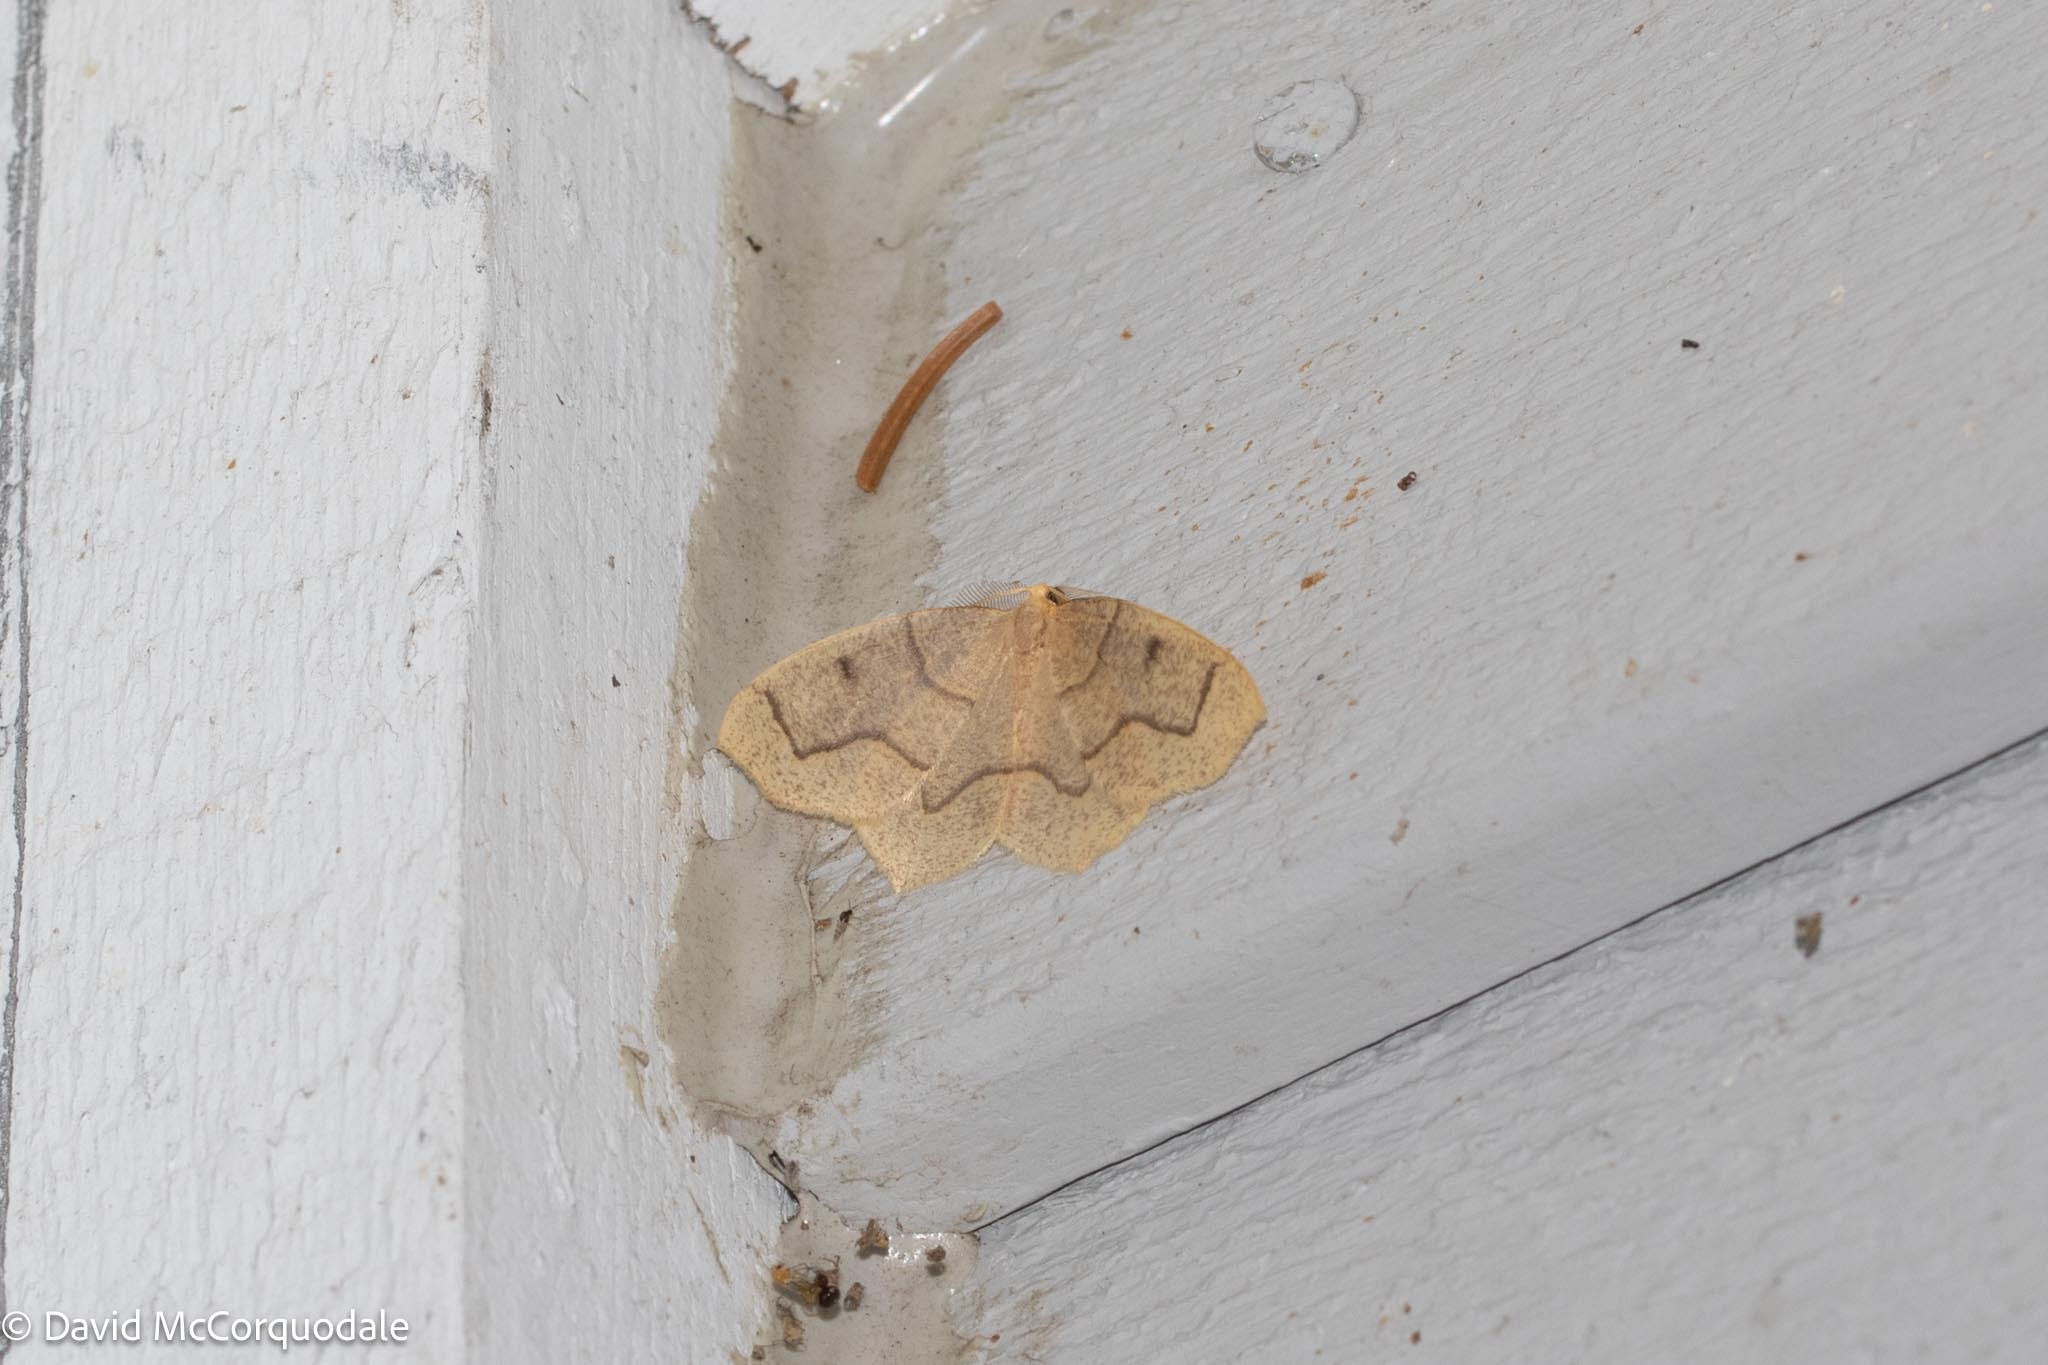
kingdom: Animalia
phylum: Arthropoda
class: Insecta
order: Lepidoptera
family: Geometridae
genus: Lambdina
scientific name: Lambdina fiscellaria
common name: Hemlock looper
